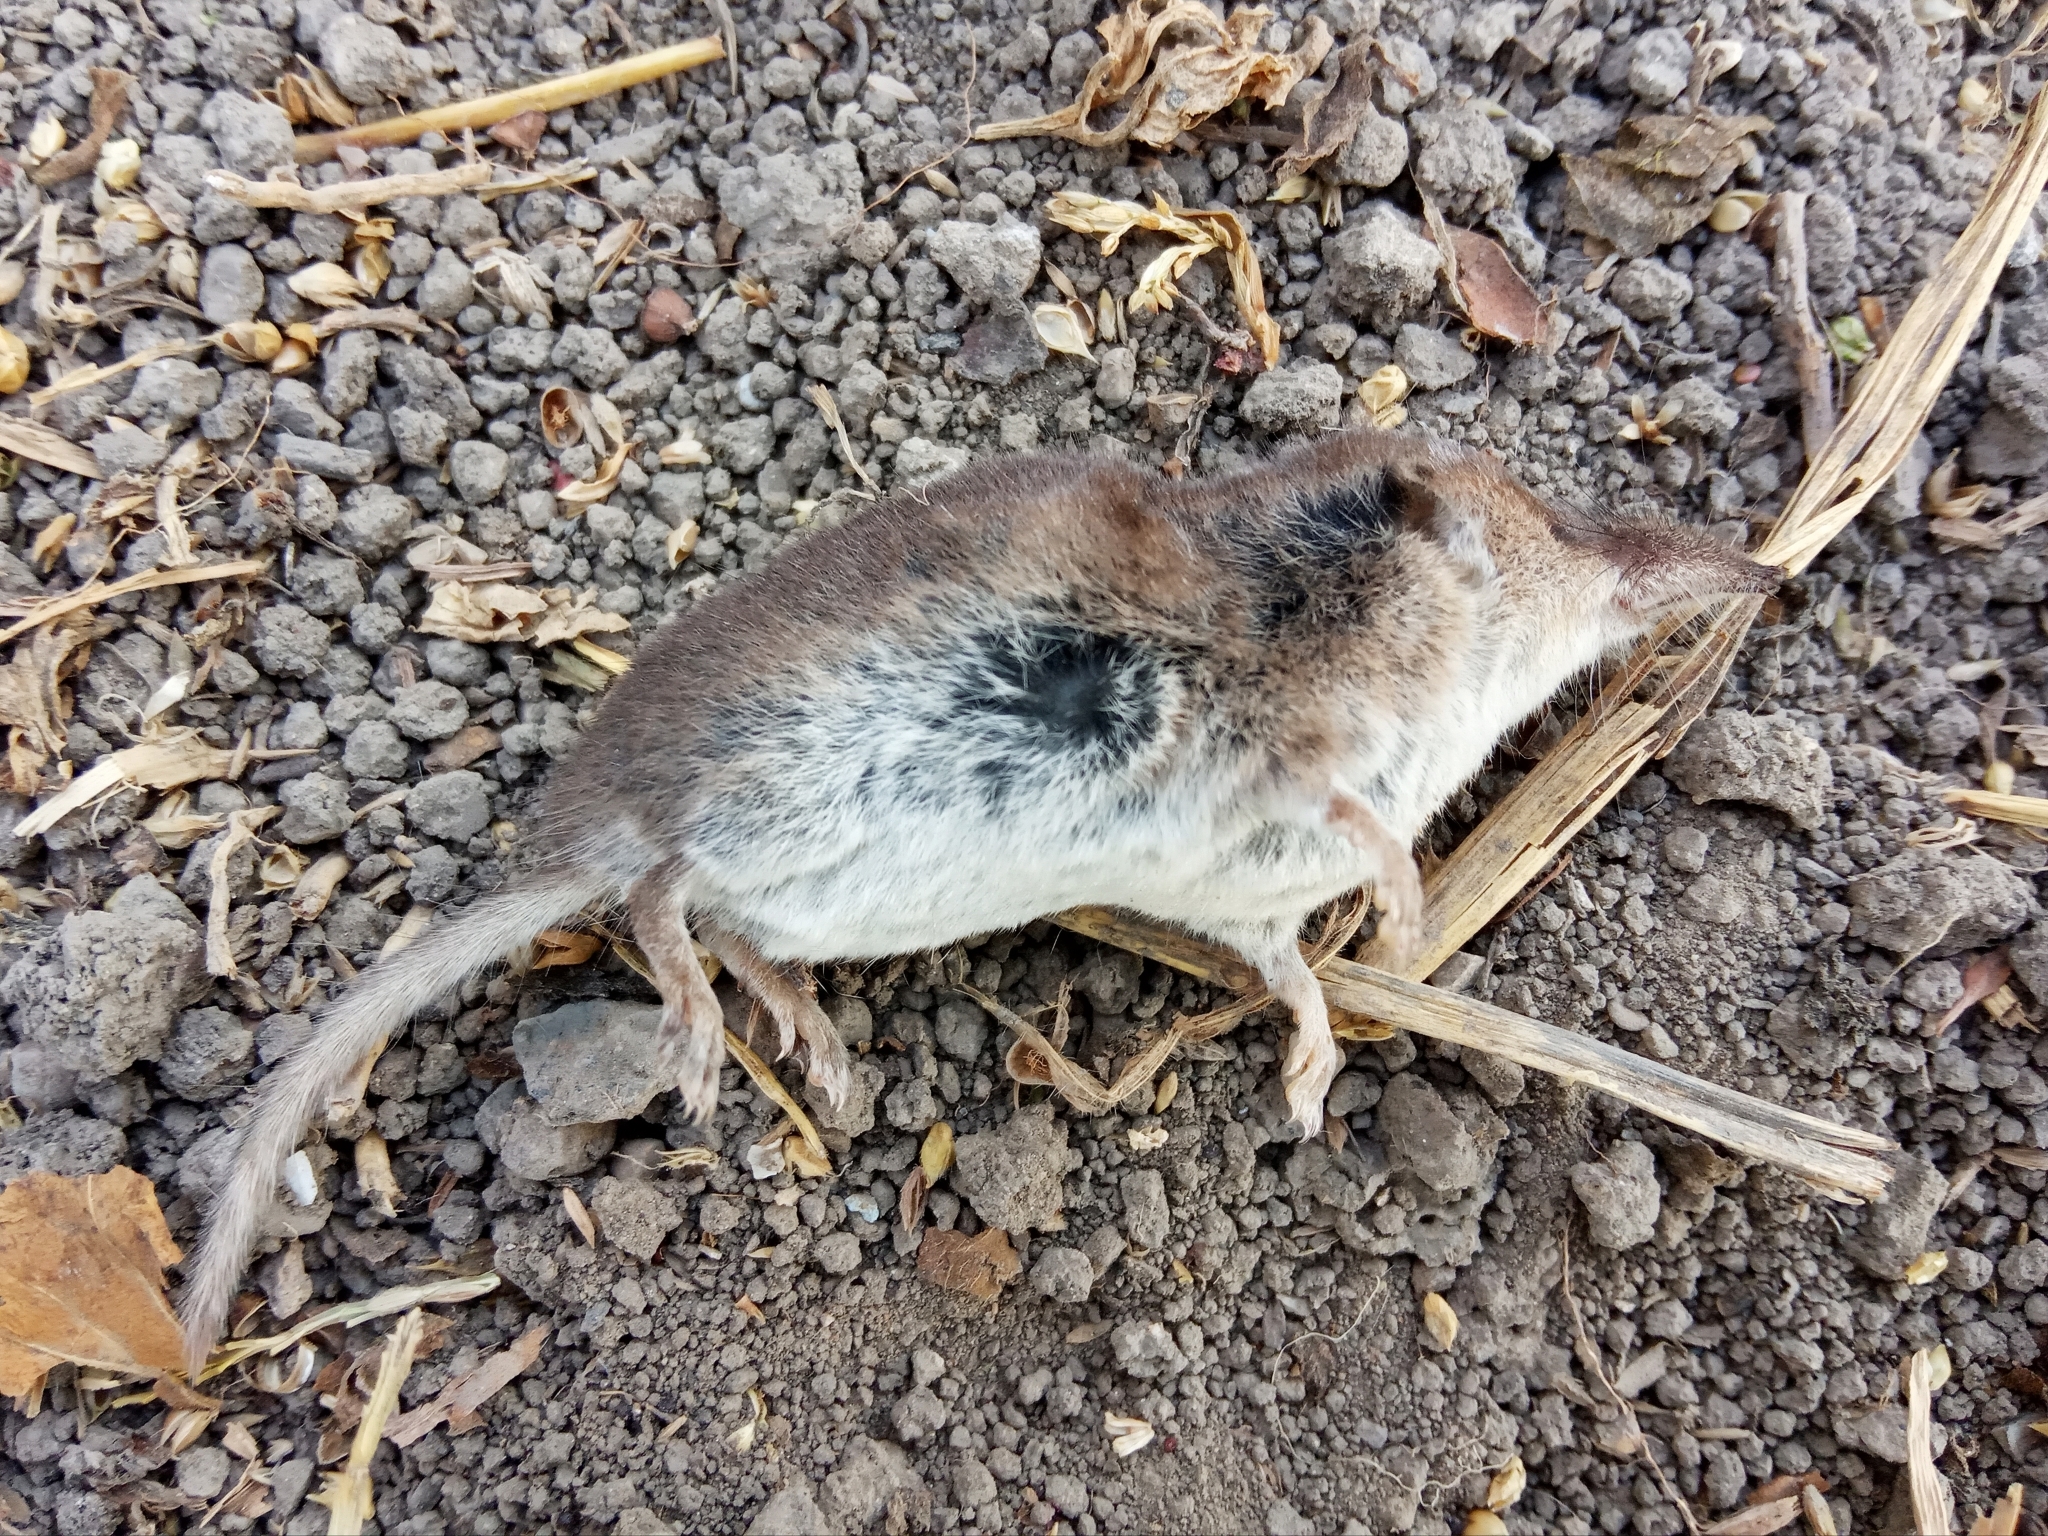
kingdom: Animalia
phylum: Chordata
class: Mammalia
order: Soricomorpha
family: Soricidae
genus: Crocidura
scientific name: Crocidura suaveolens
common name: Lesser white-toothed shrew
